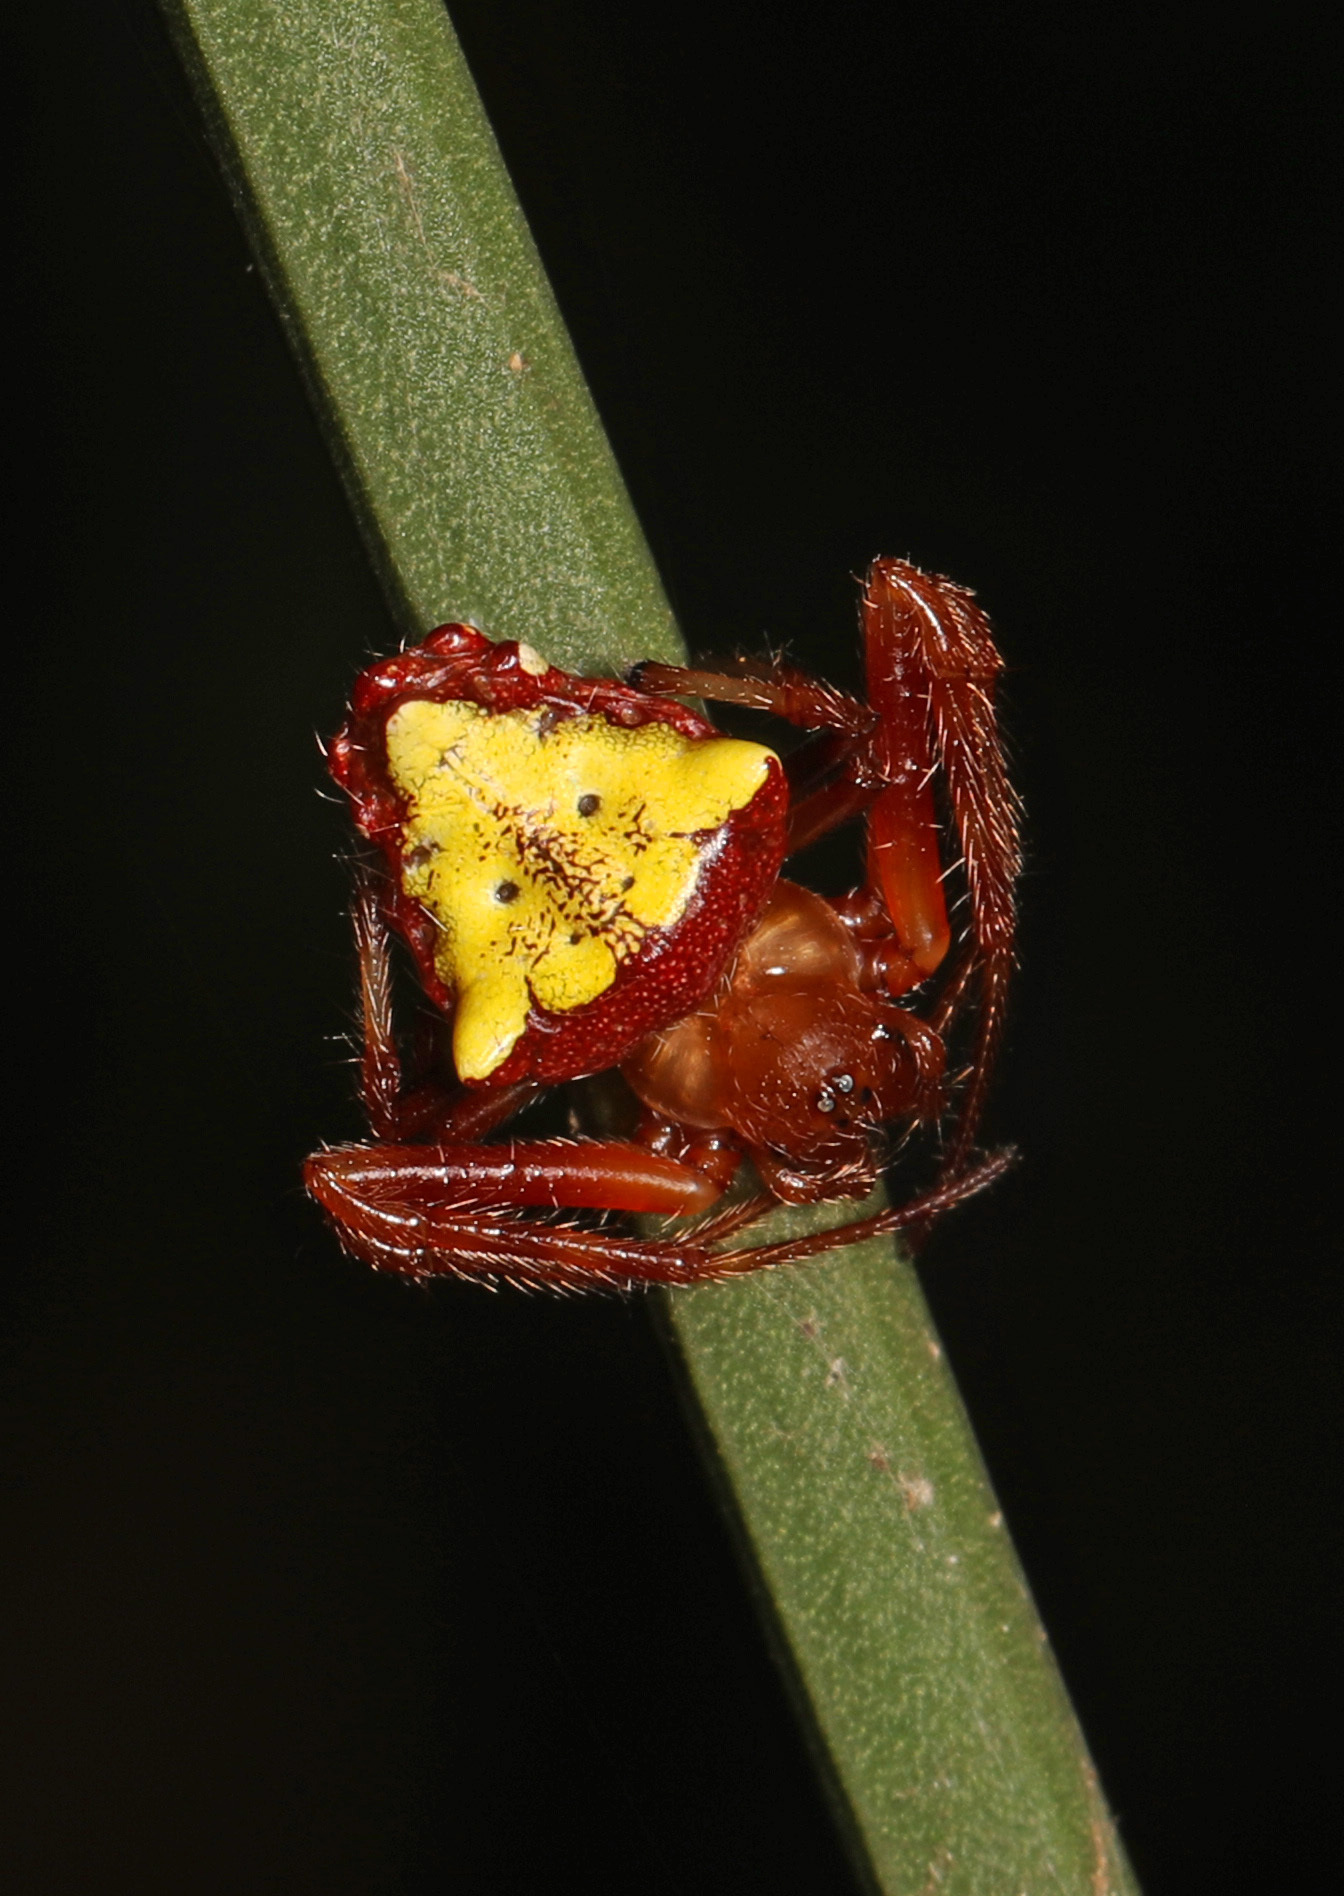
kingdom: Animalia
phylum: Arthropoda
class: Arachnida
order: Araneae
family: Araneidae
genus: Verrucosa
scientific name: Verrucosa arenata
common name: Orb weavers
